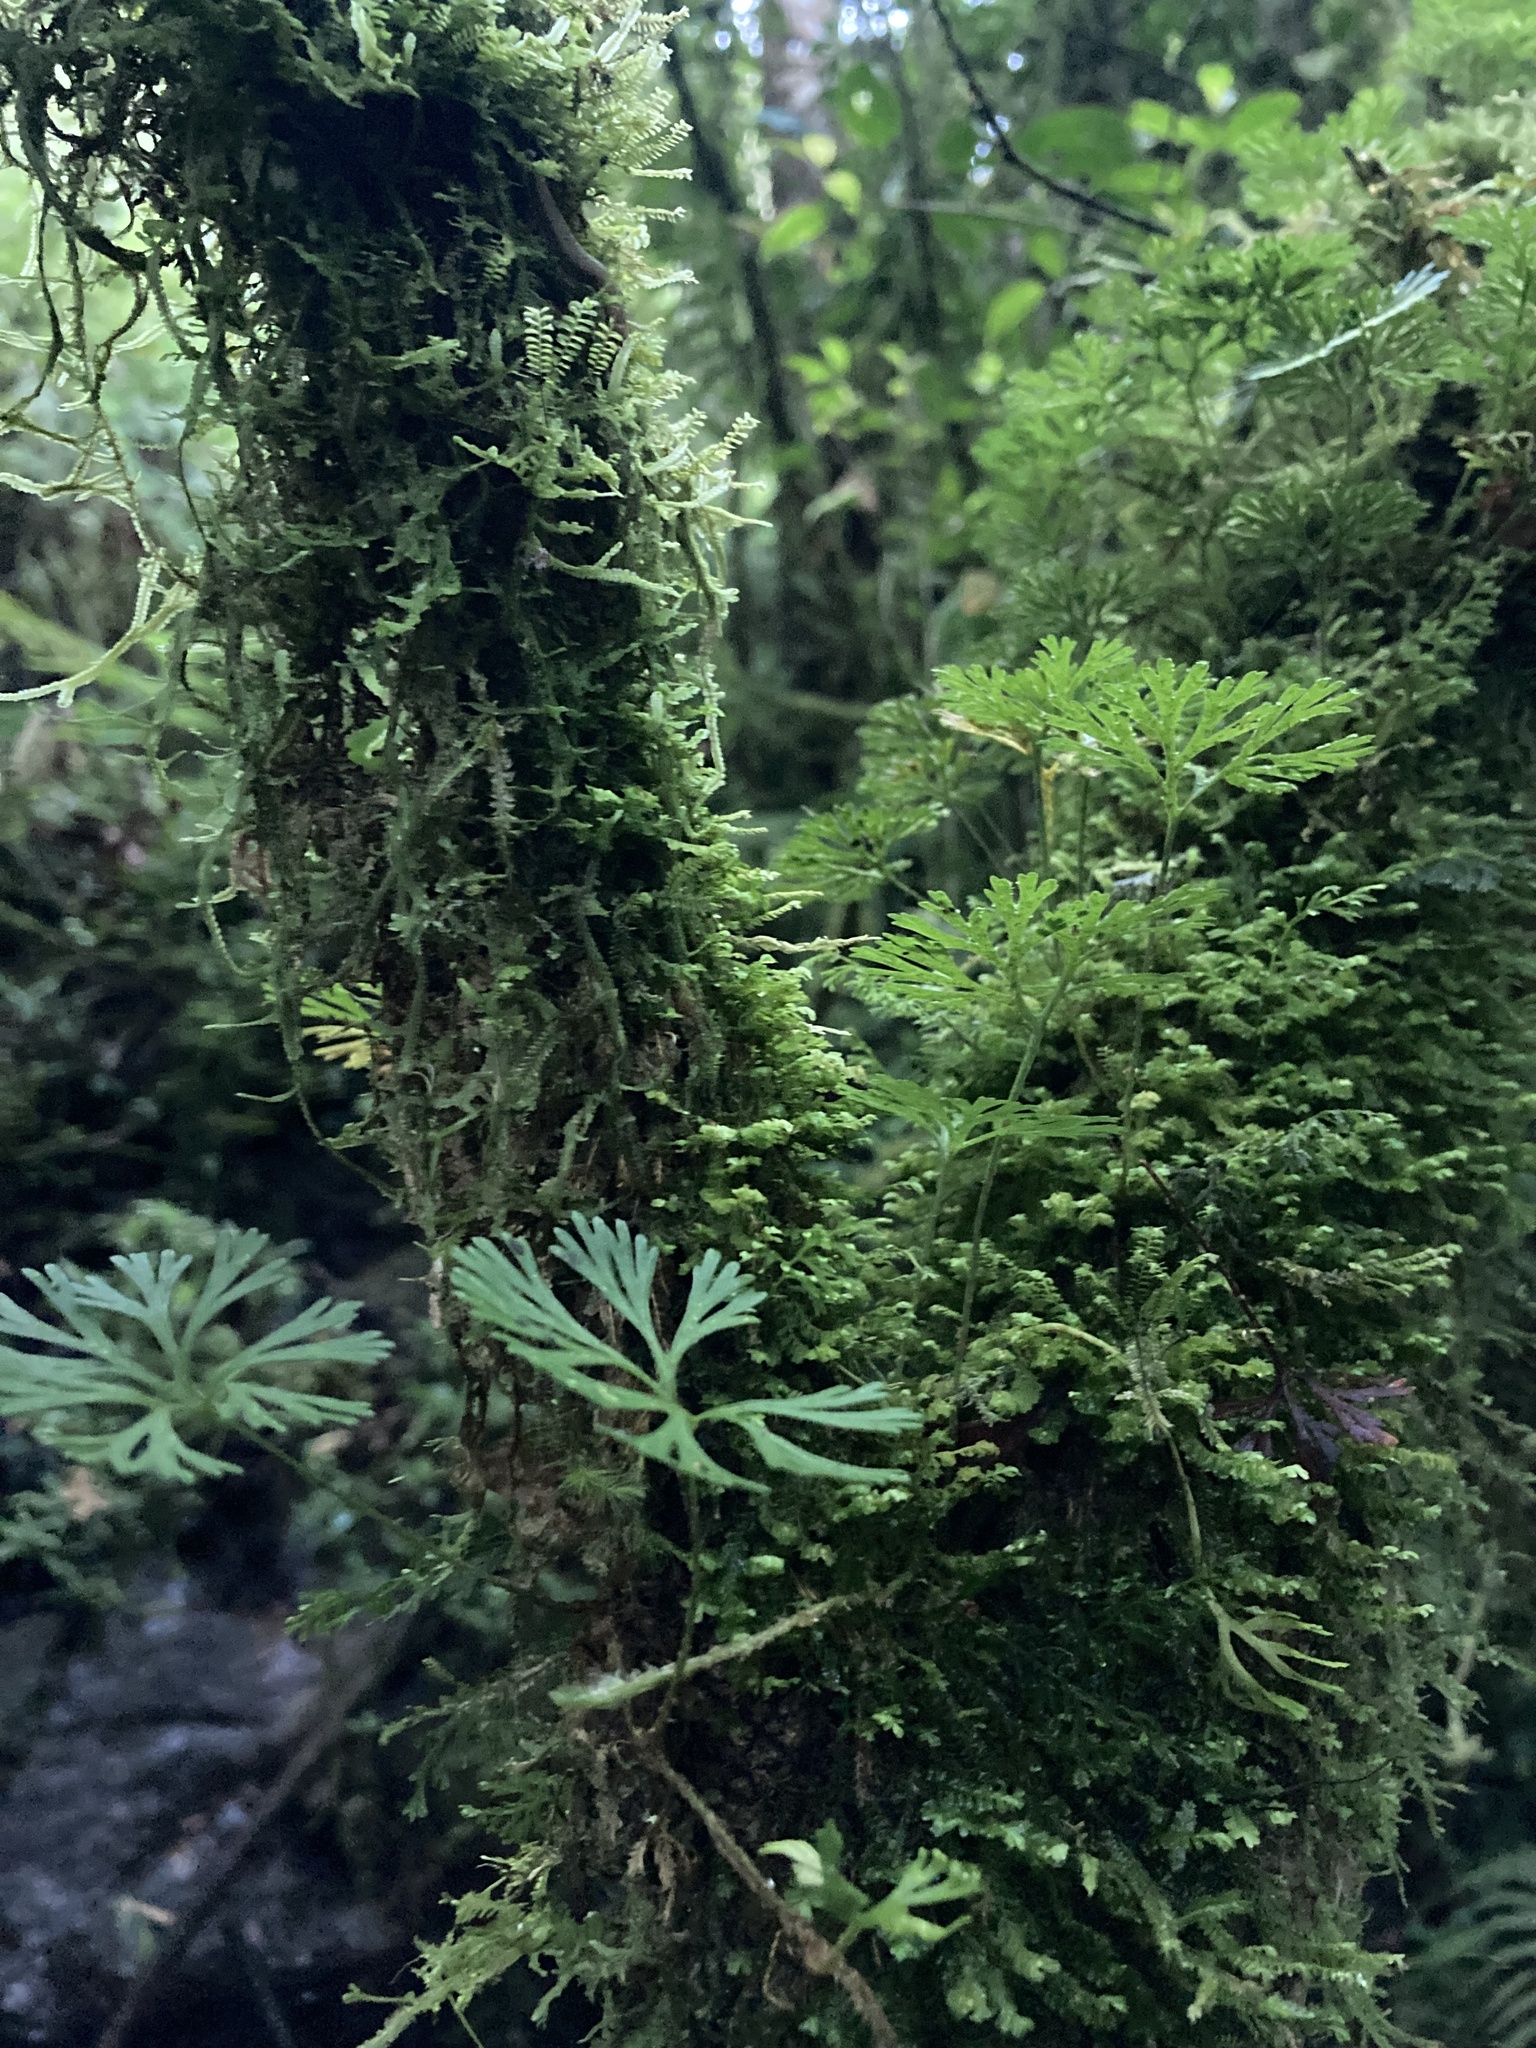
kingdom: Plantae
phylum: Tracheophyta
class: Polypodiopsida
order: Polypodiales
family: Dryopteridaceae
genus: Elaphoglossum
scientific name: Elaphoglossum peltatum
